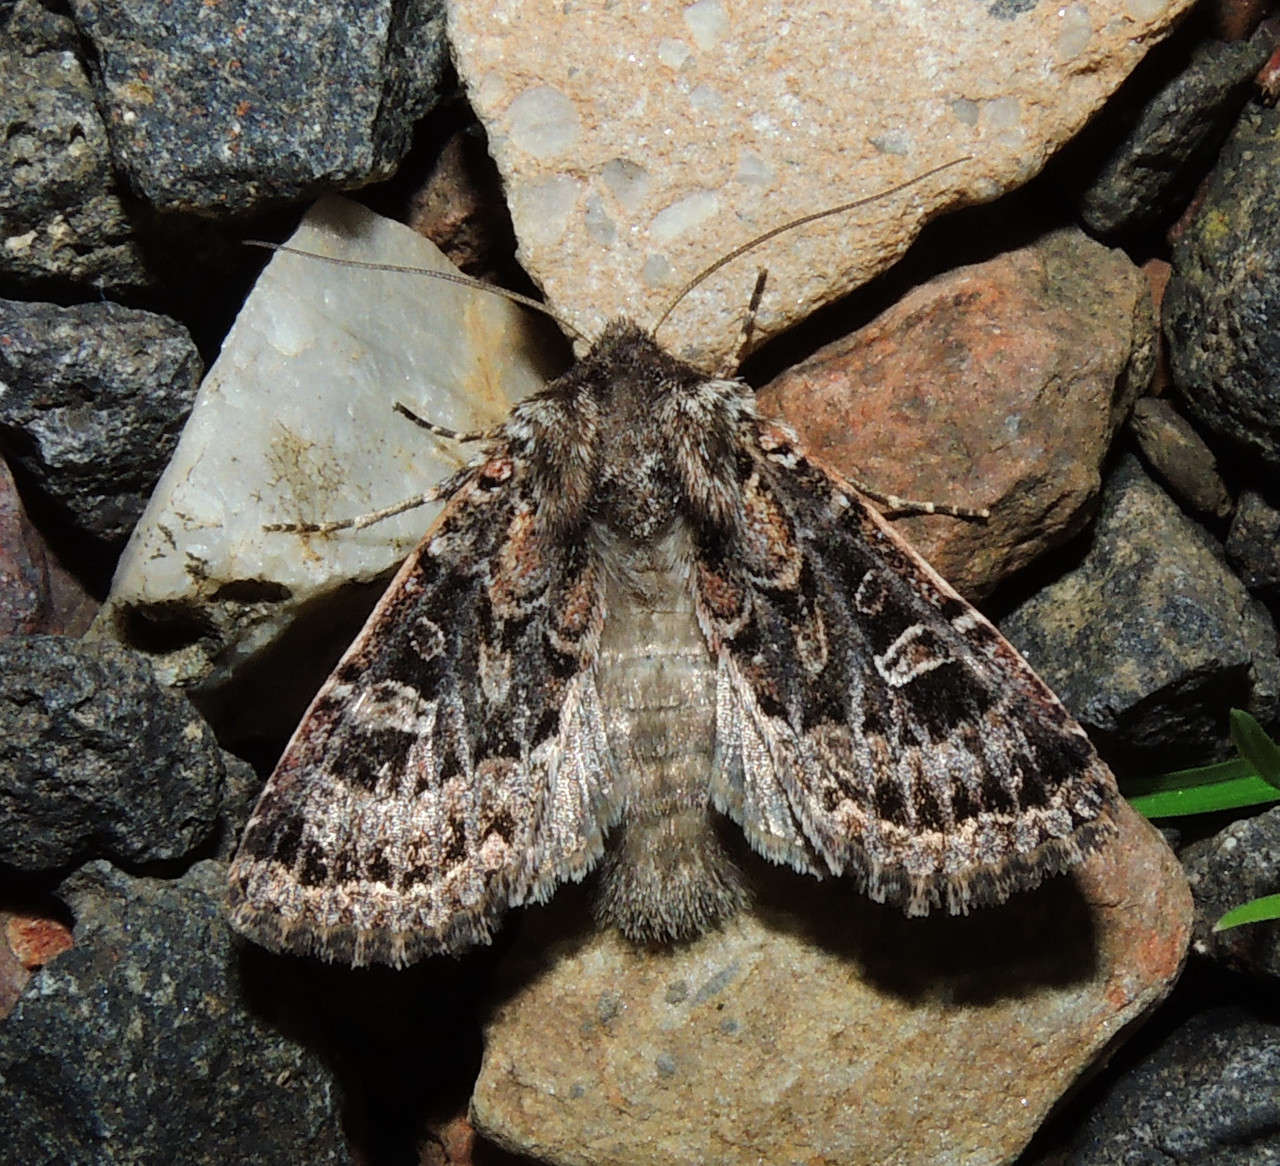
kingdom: Animalia
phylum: Arthropoda
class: Insecta
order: Lepidoptera
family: Noctuidae
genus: Mamestra
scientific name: Mamestra dictyota
